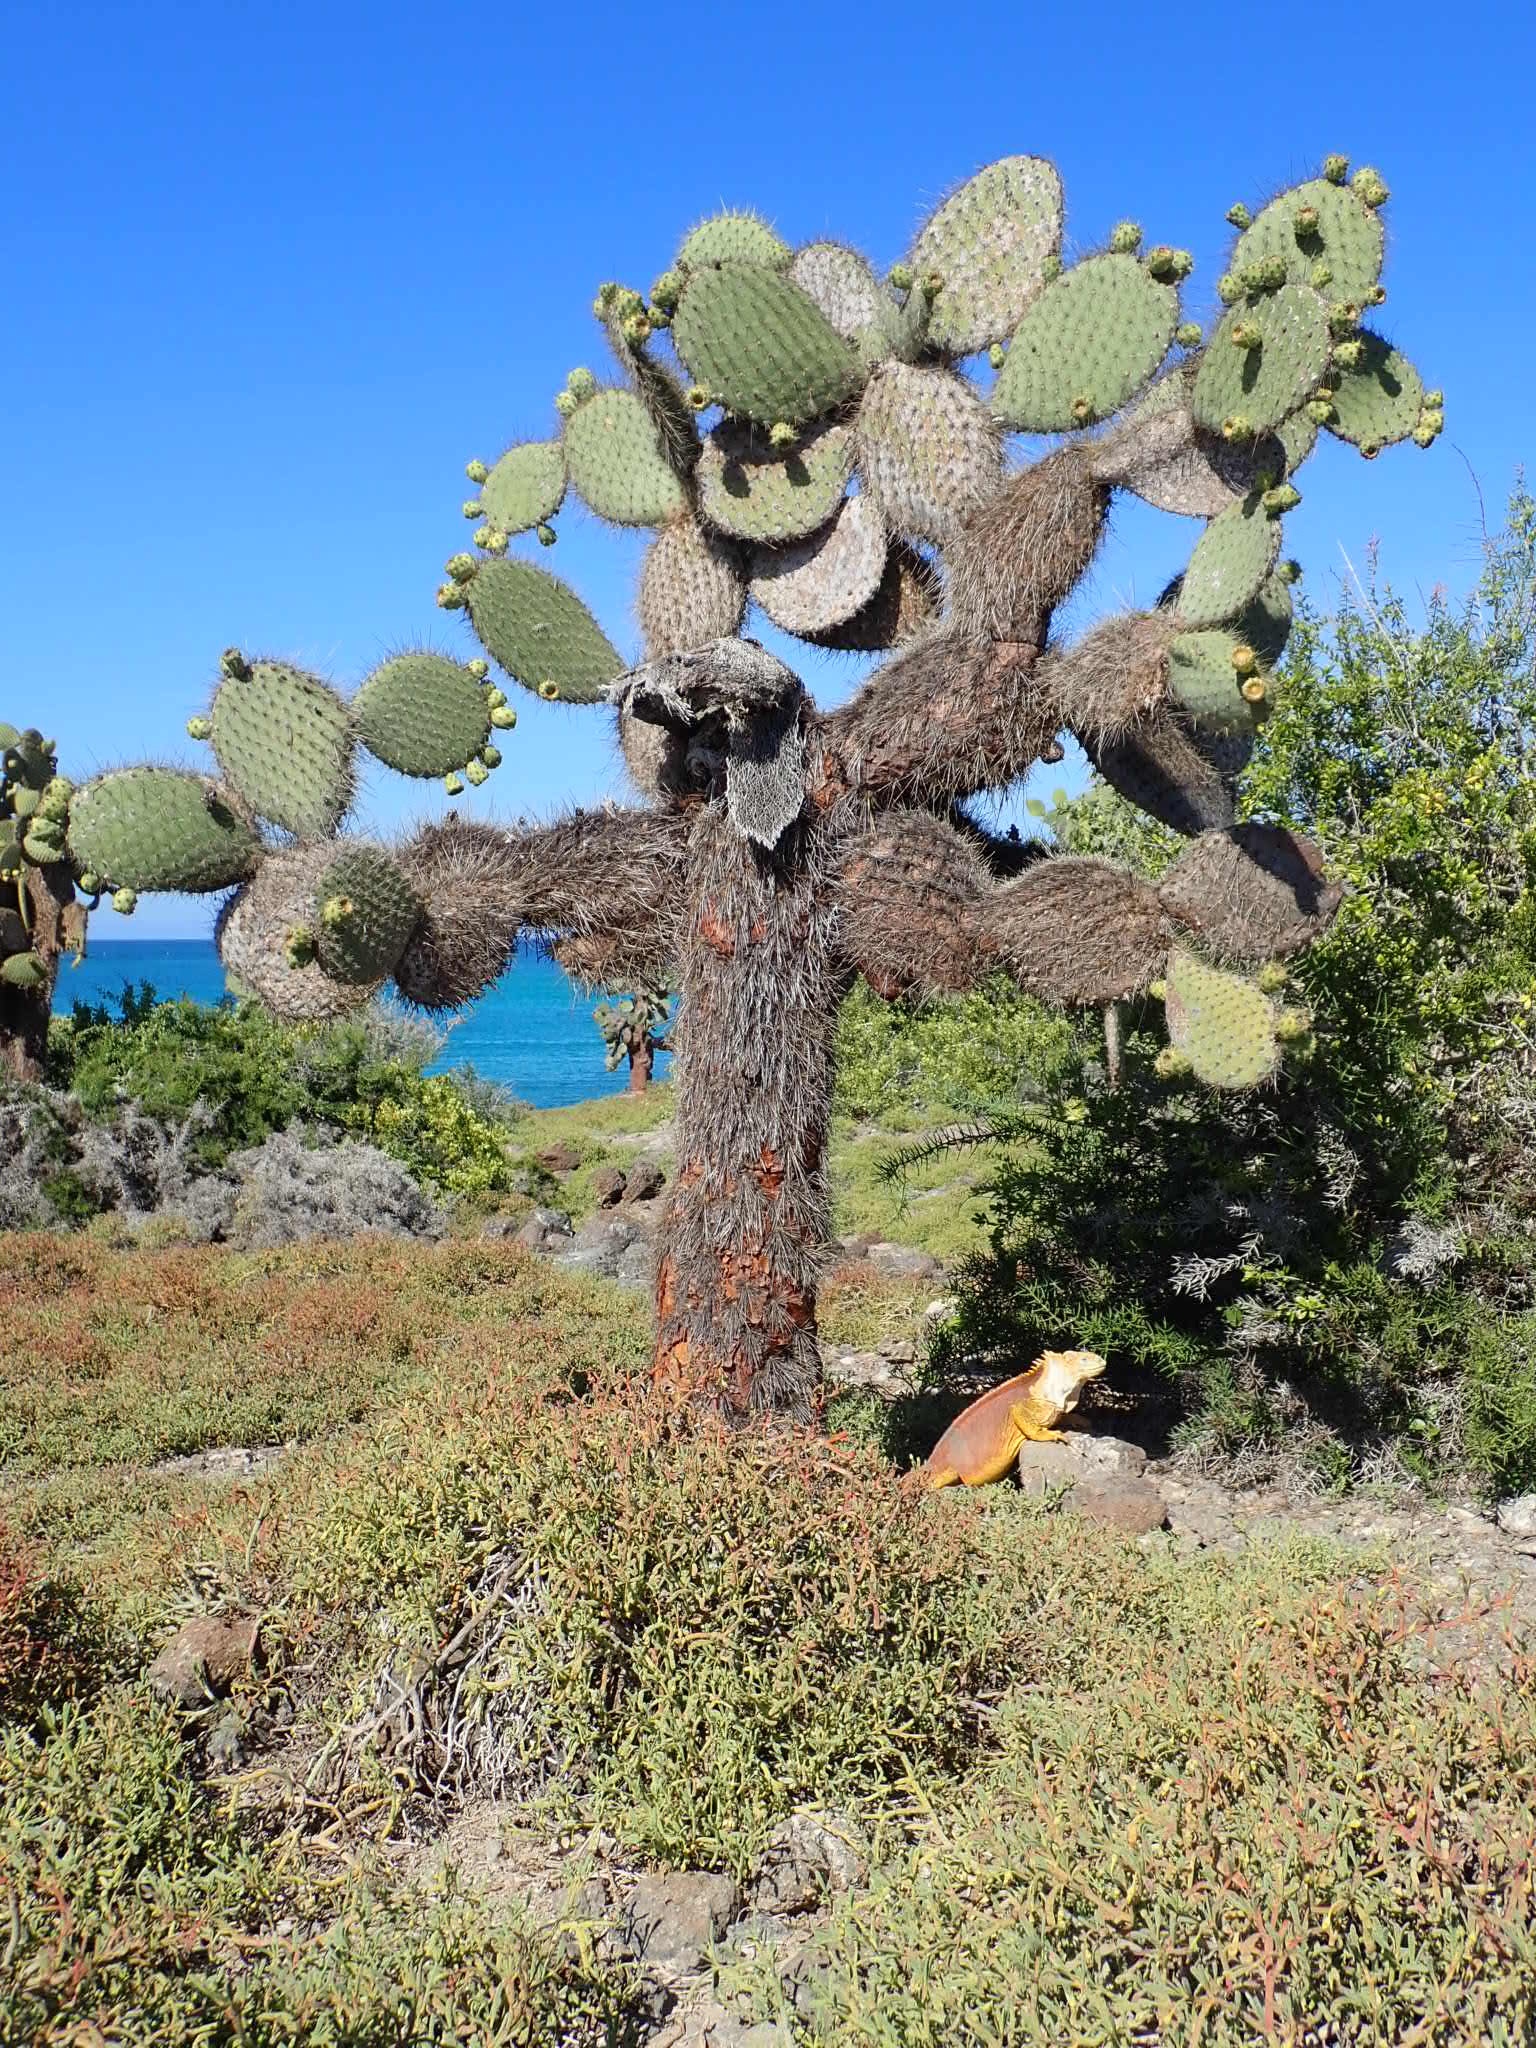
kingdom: Animalia
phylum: Chordata
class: Squamata
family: Iguanidae
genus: Conolophus
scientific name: Conolophus subcristatus
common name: Galapagos land iguana
